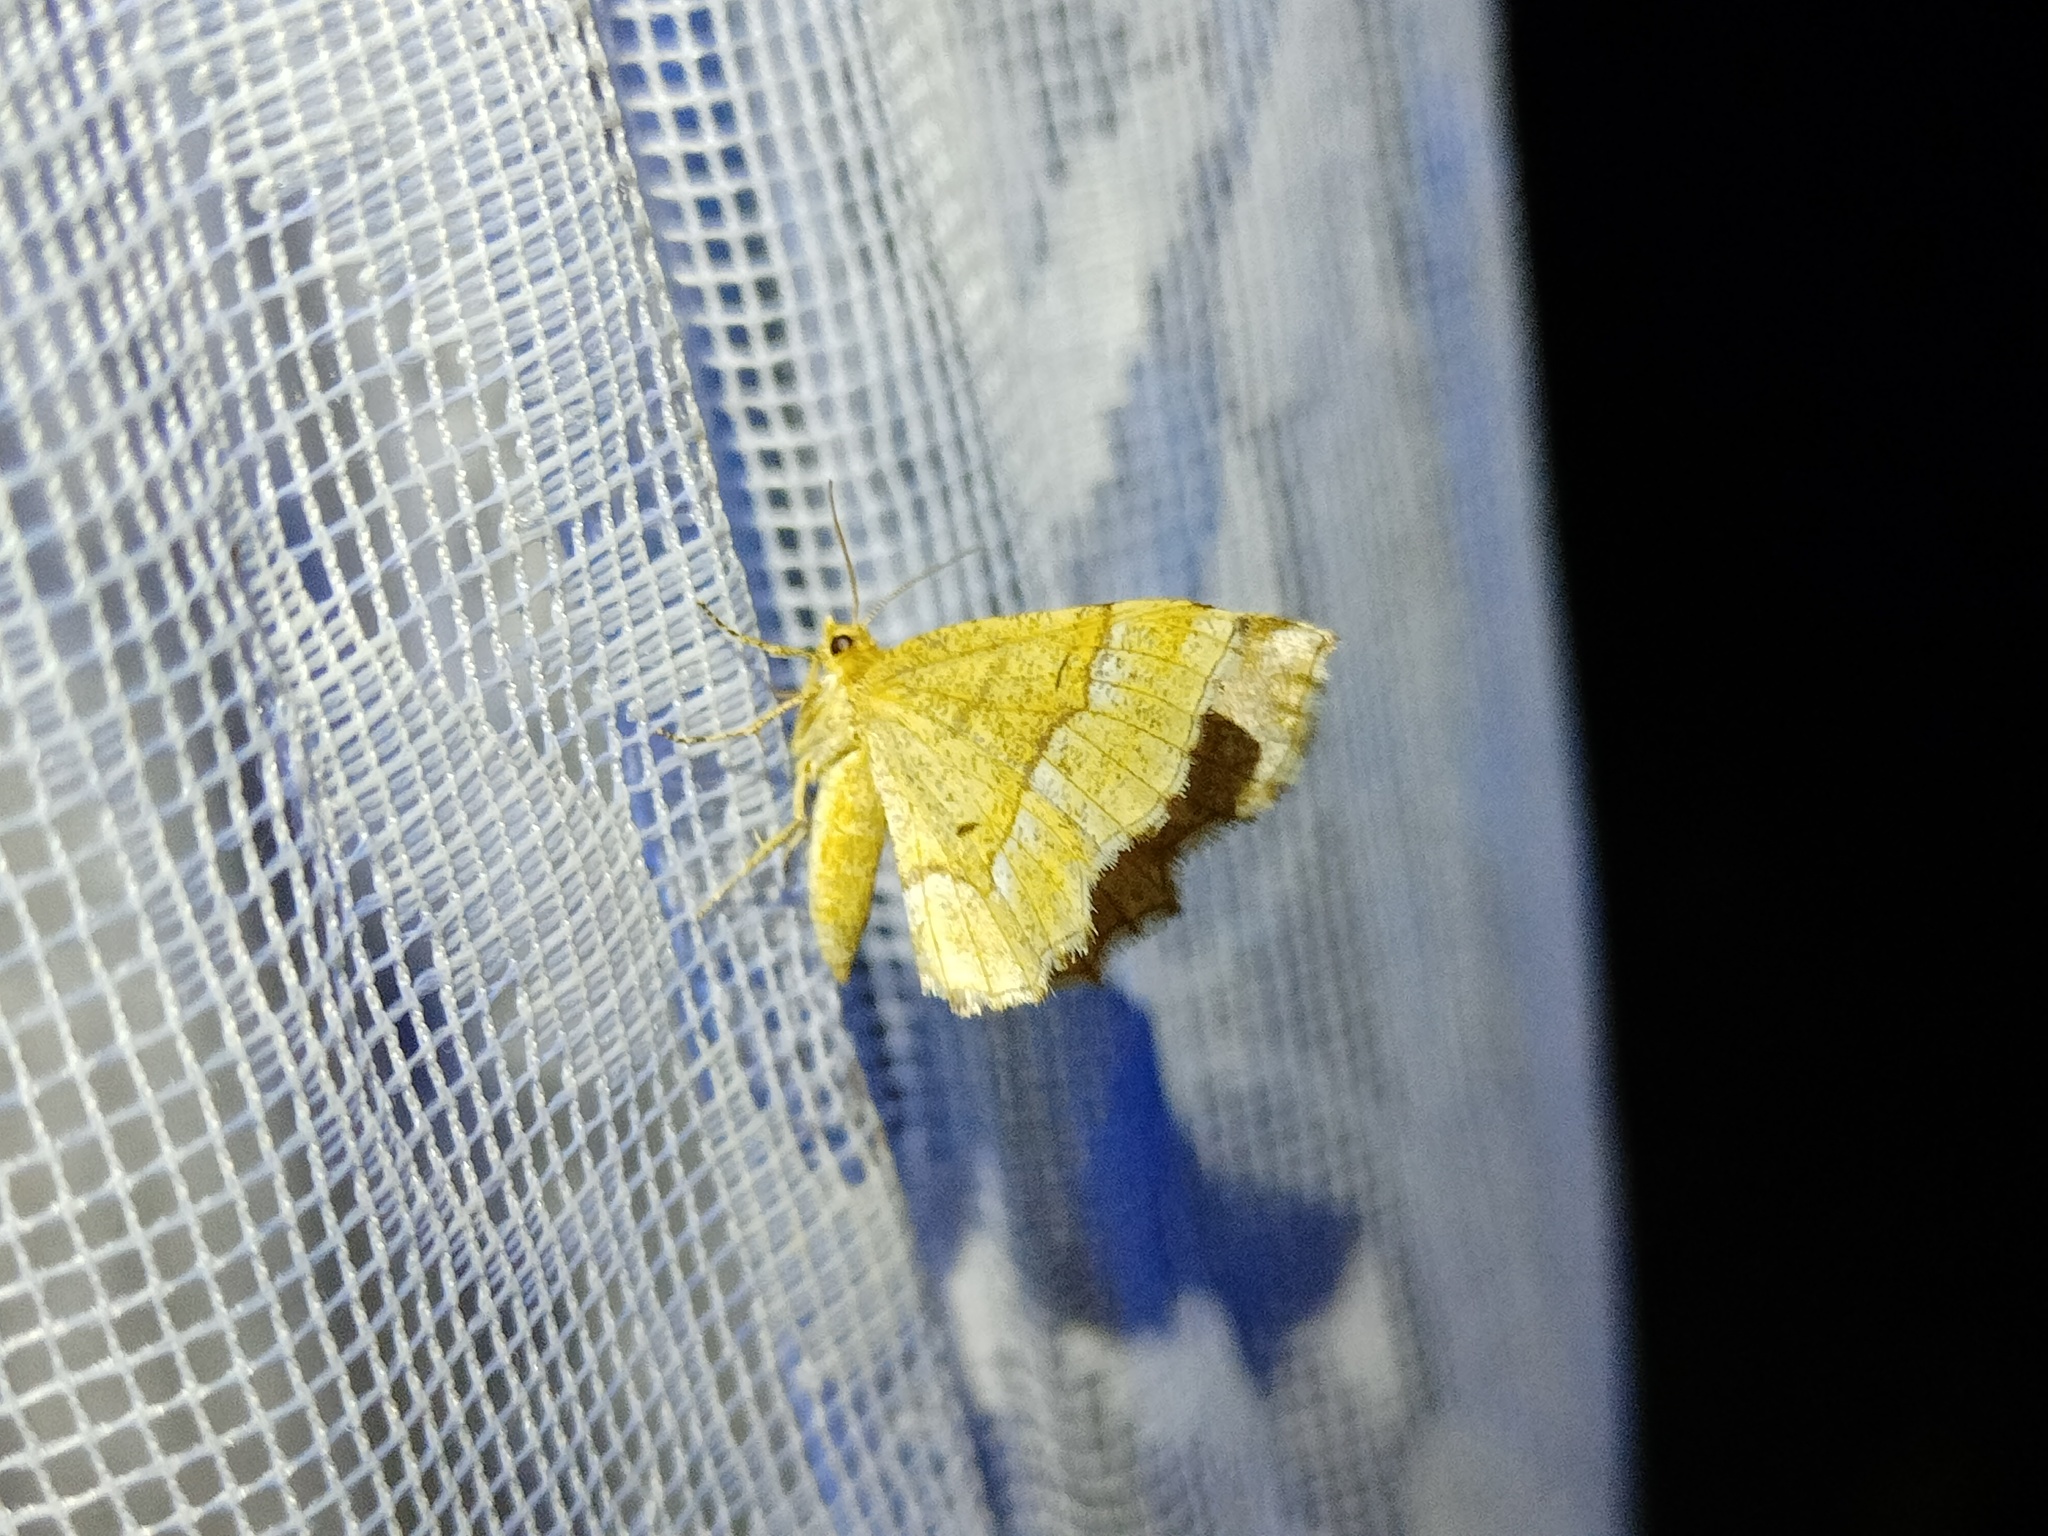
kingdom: Animalia
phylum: Arthropoda
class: Insecta
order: Lepidoptera
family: Geometridae
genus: Cepphis
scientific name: Cepphis advenaria
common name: Little thorn
